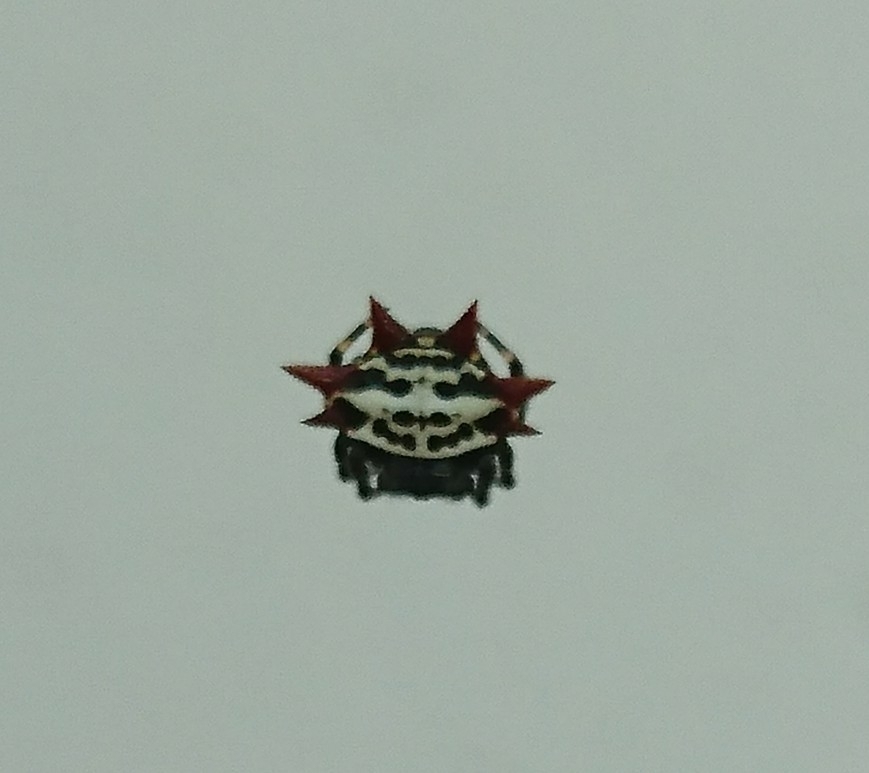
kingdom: Animalia
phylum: Arthropoda
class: Arachnida
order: Araneae
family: Araneidae
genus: Gasteracantha
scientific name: Gasteracantha cancriformis
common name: Orb weavers
